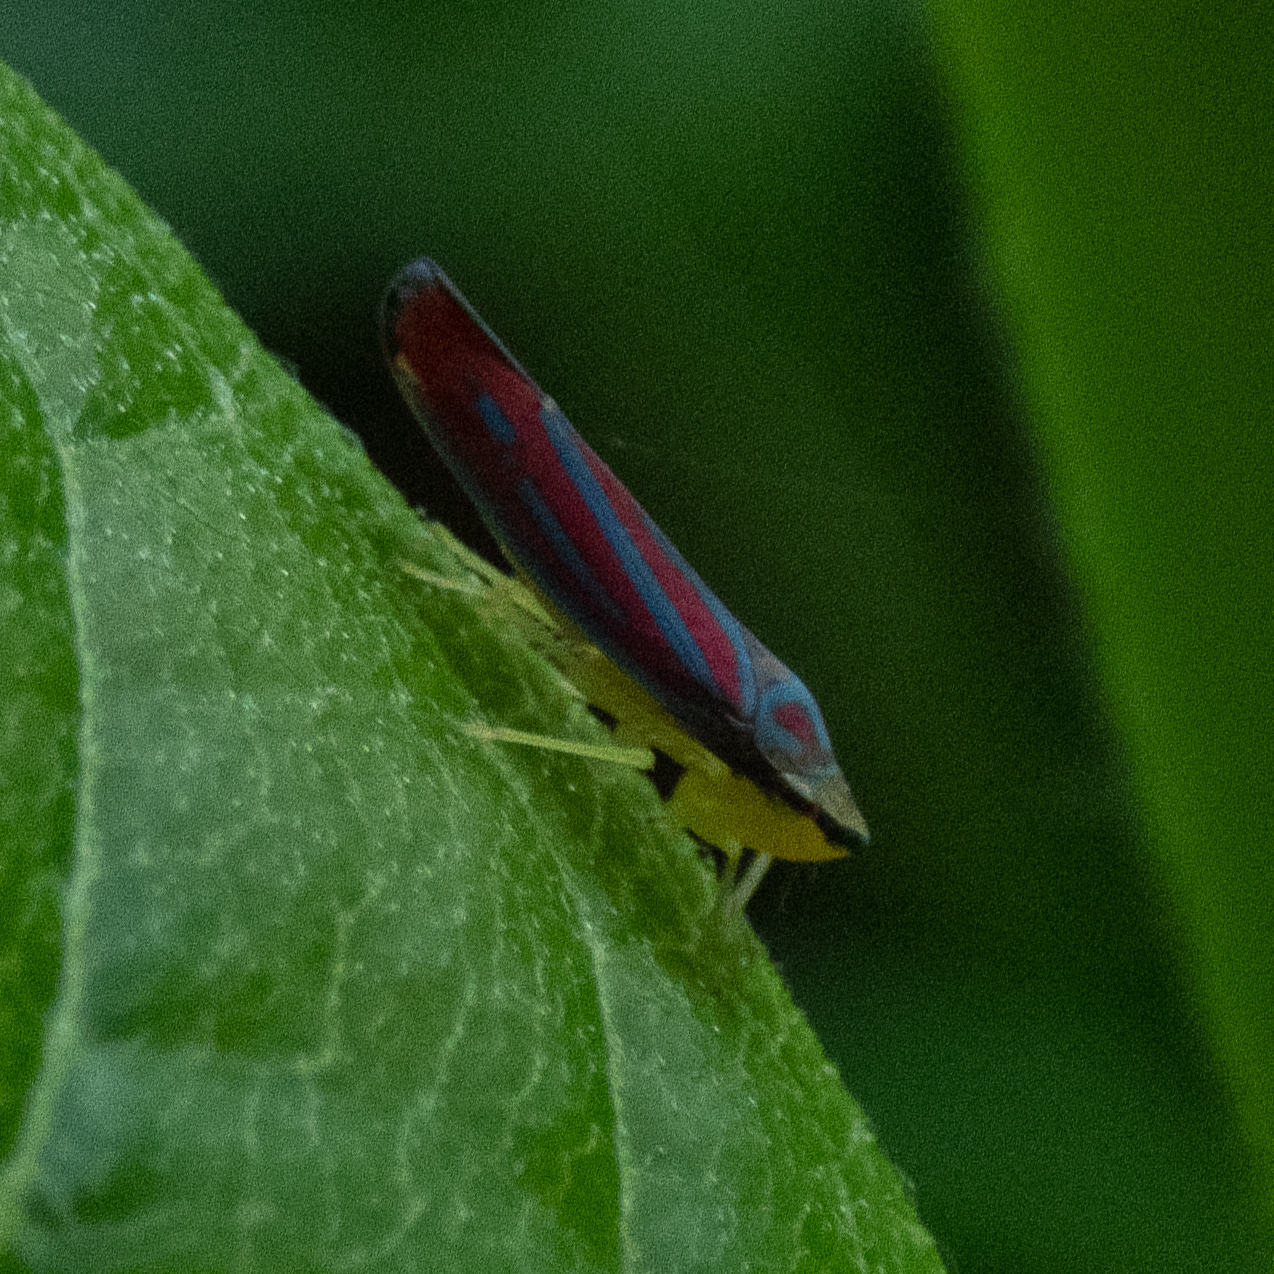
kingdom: Animalia
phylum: Arthropoda
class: Insecta
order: Hemiptera
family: Cicadellidae
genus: Graphocephala
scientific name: Graphocephala coccinea
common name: Candy-striped leafhopper
